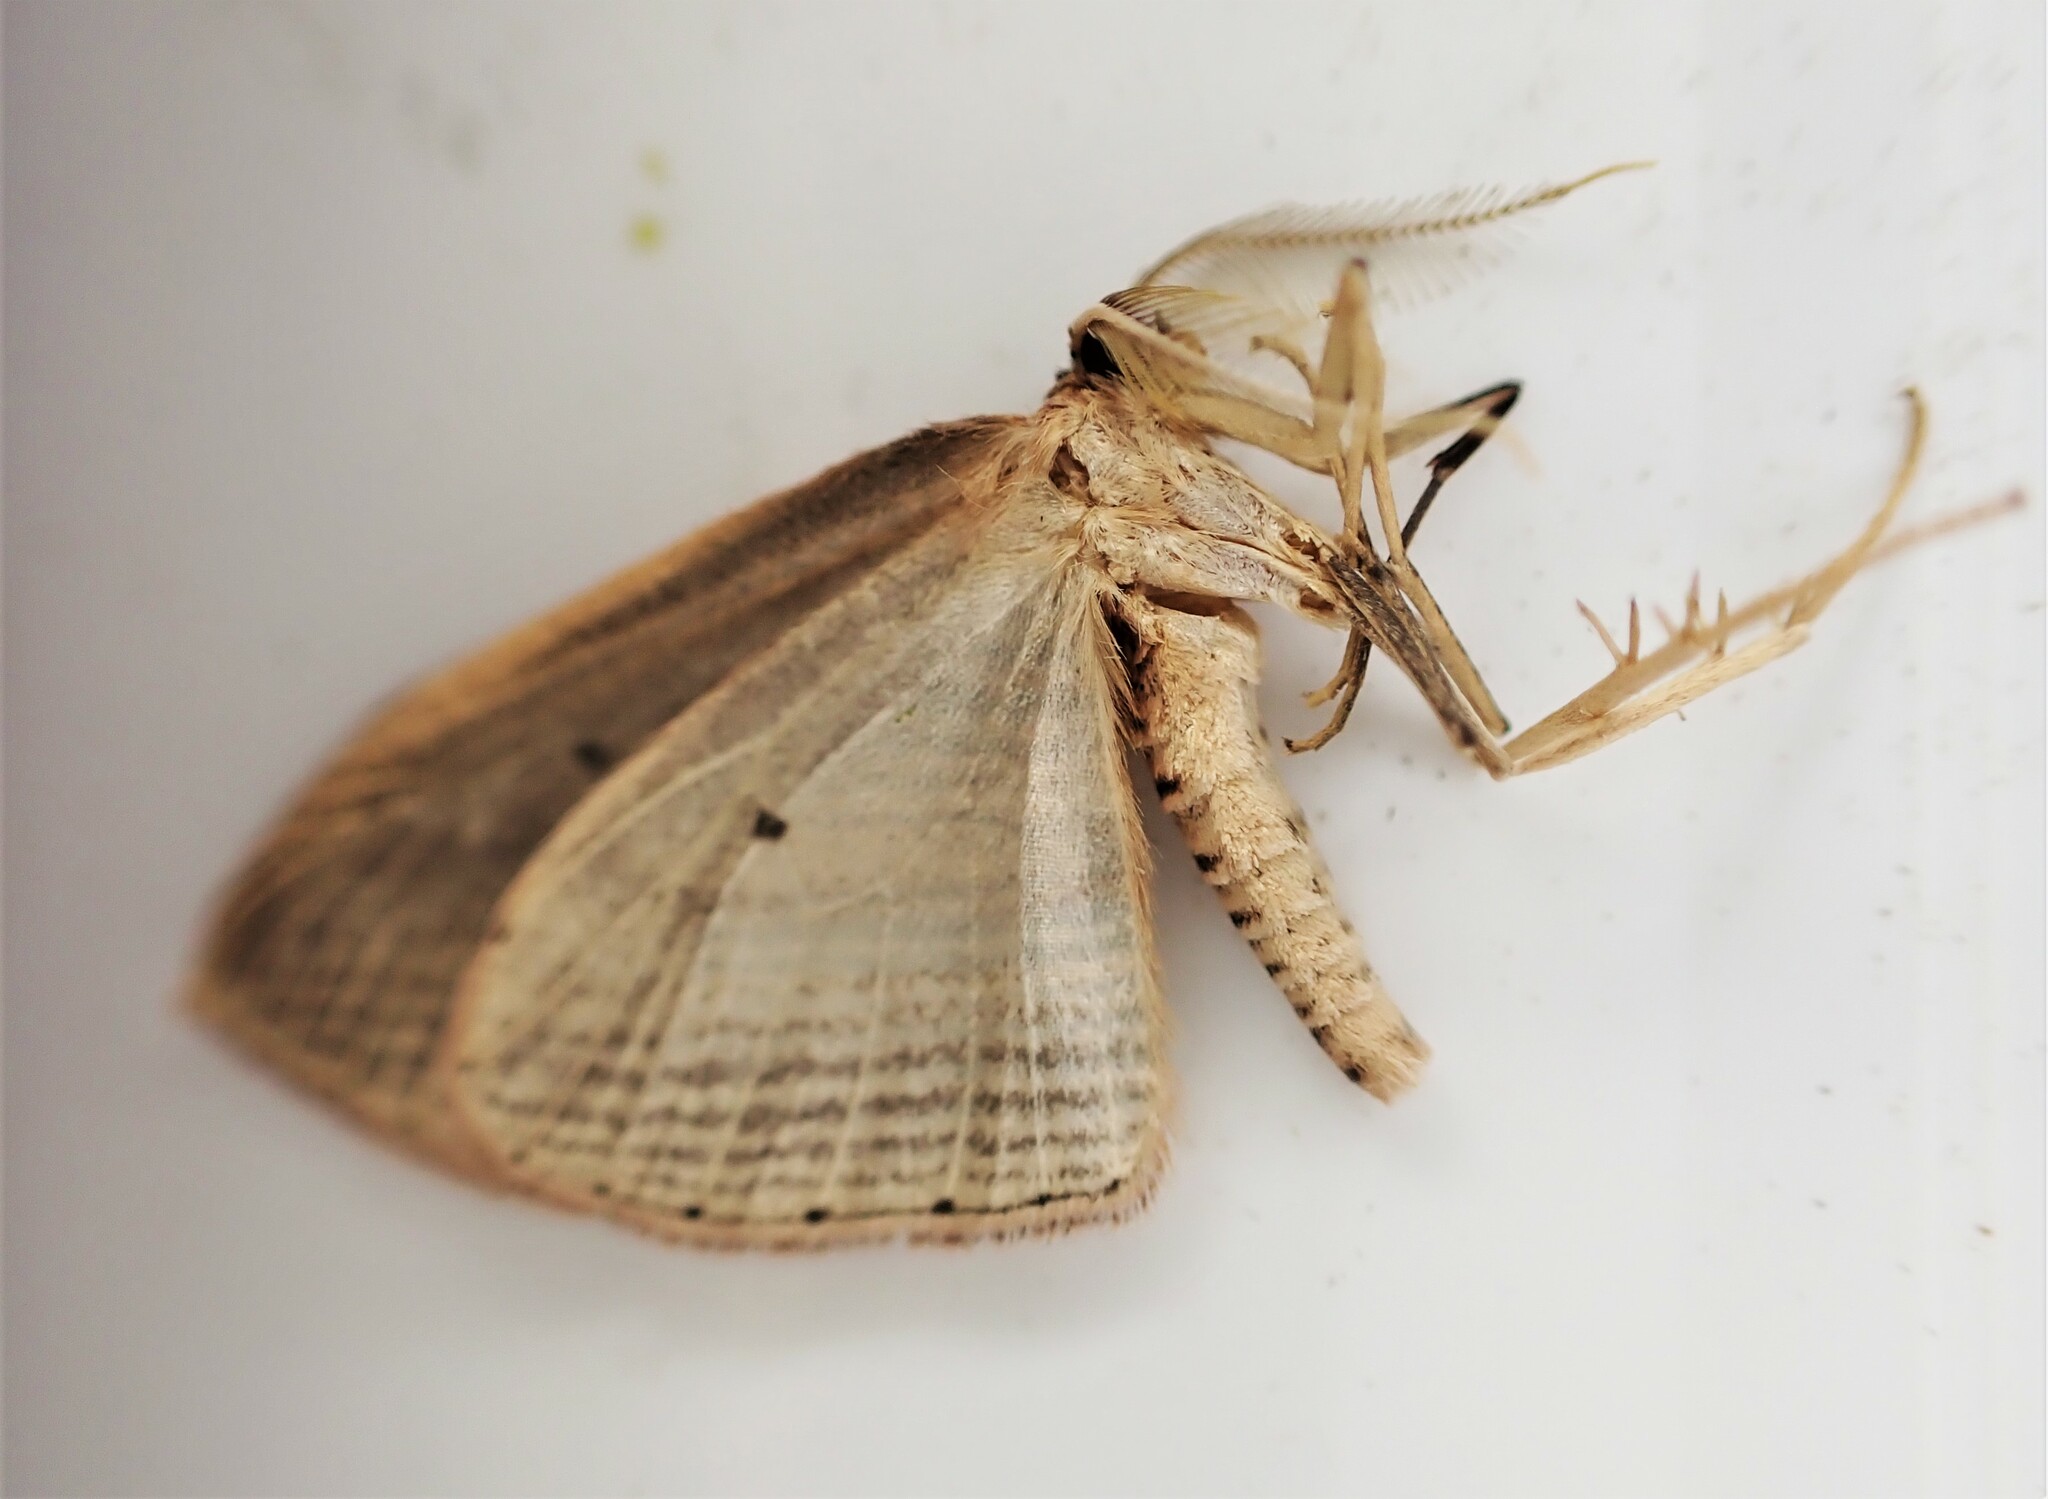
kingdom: Animalia
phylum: Arthropoda
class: Insecta
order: Lepidoptera
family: Geometridae
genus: Epiphryne
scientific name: Epiphryne verriculata
